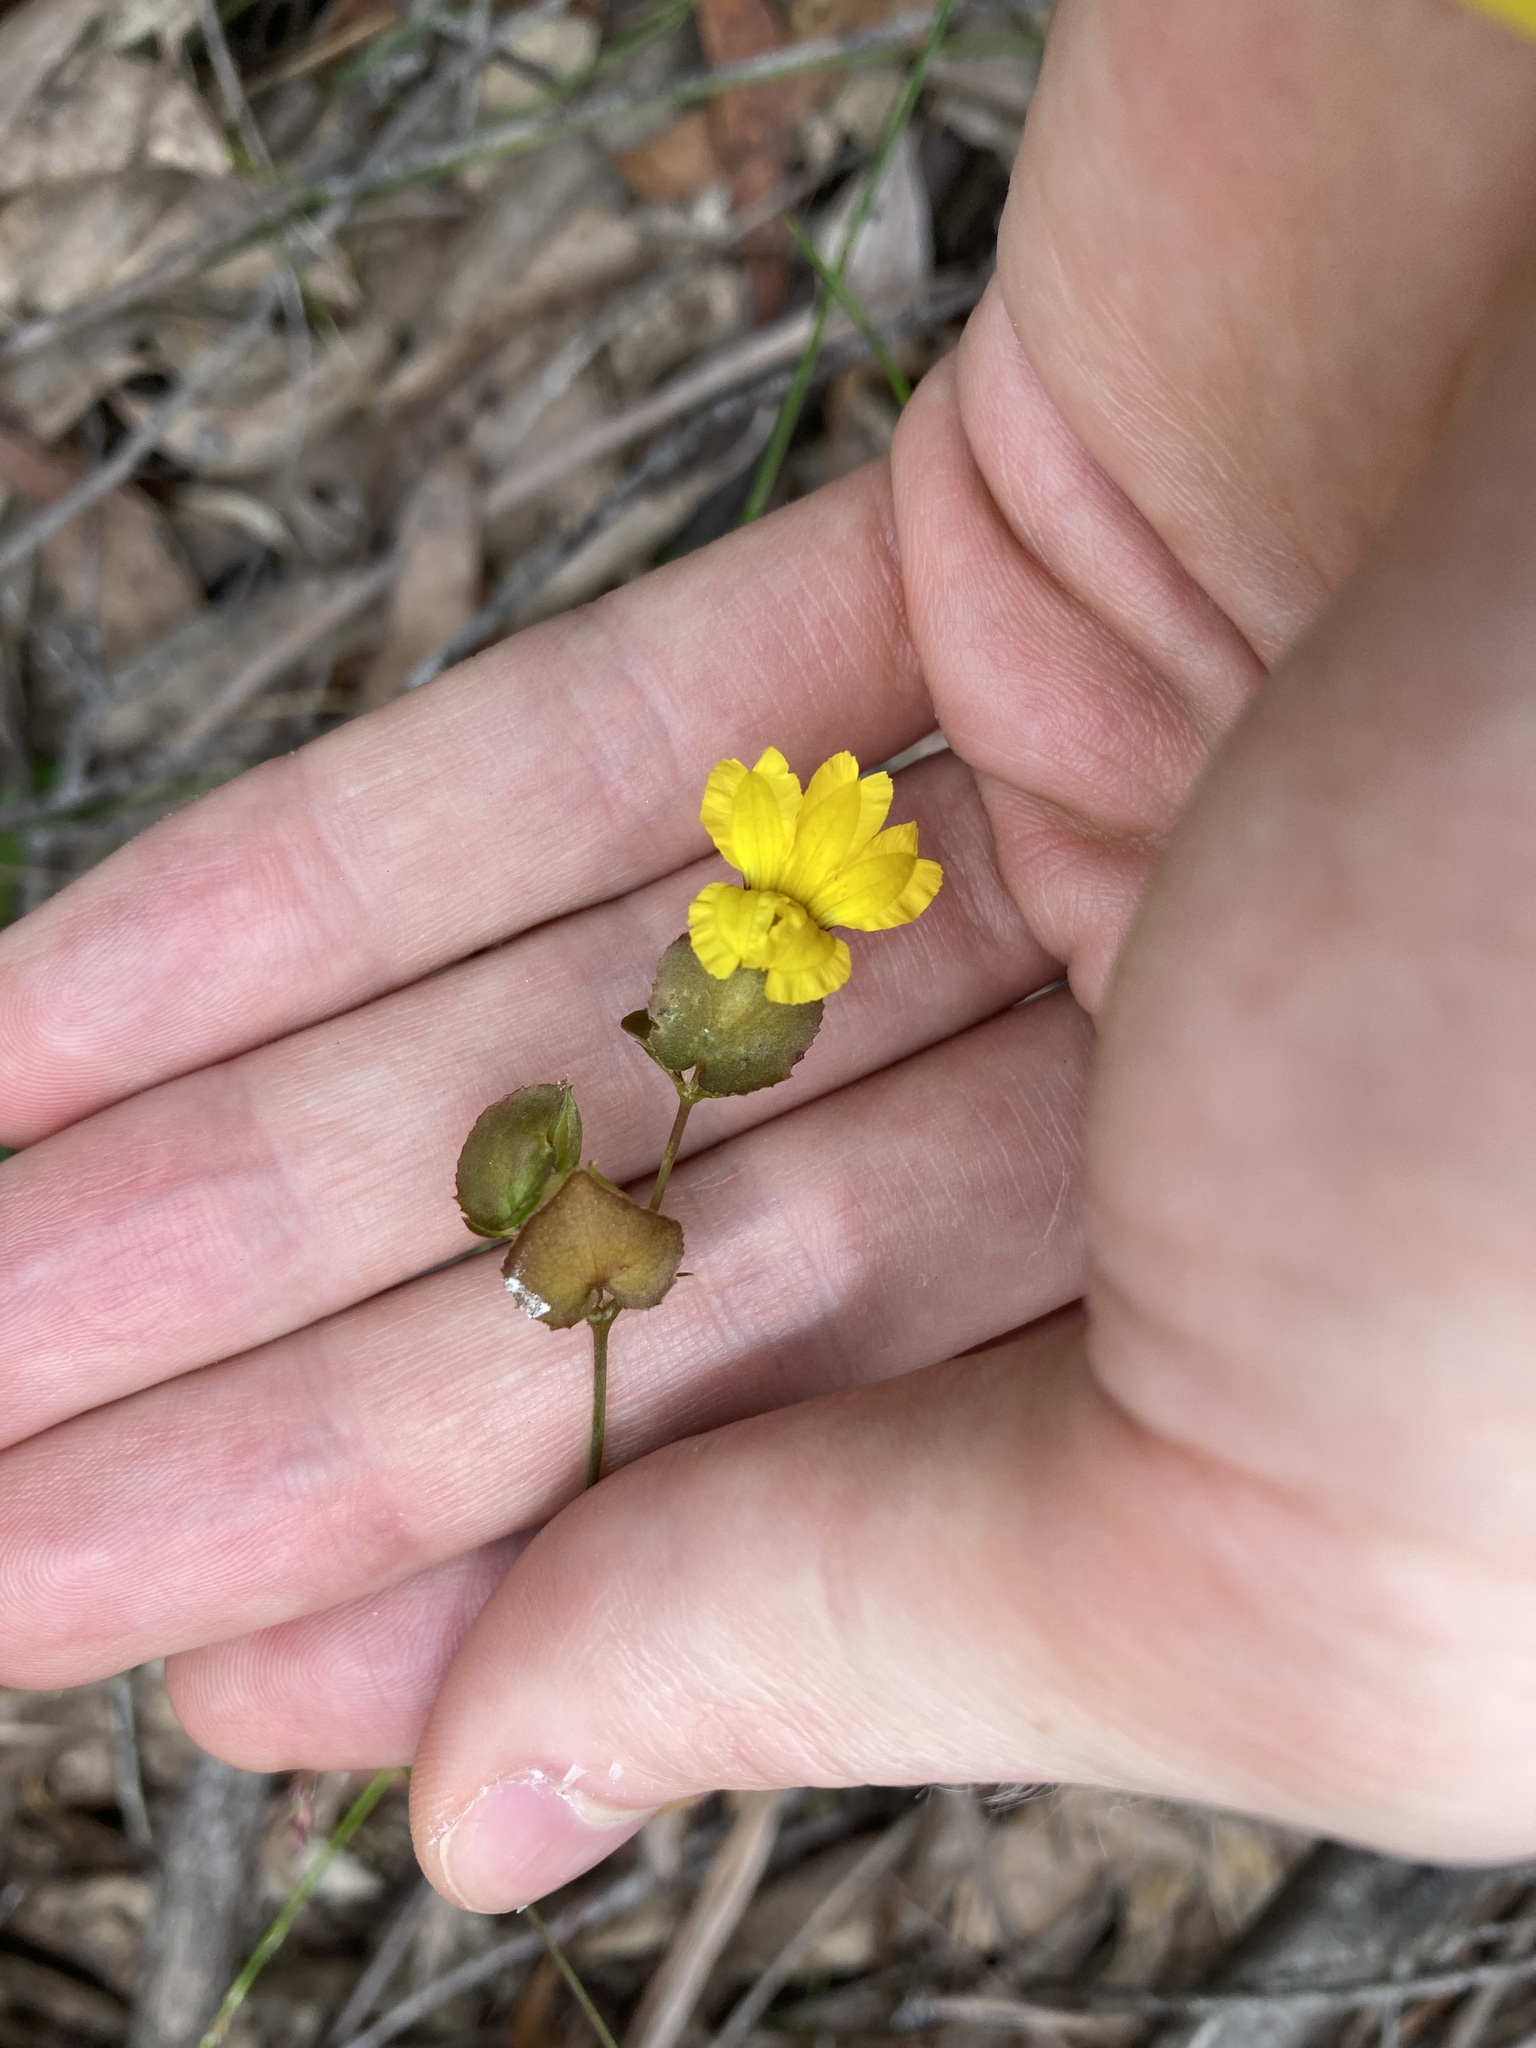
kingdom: Plantae
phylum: Tracheophyta
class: Magnoliopsida
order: Asterales
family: Goodeniaceae
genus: Goodenia
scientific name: Goodenia caroliniana
